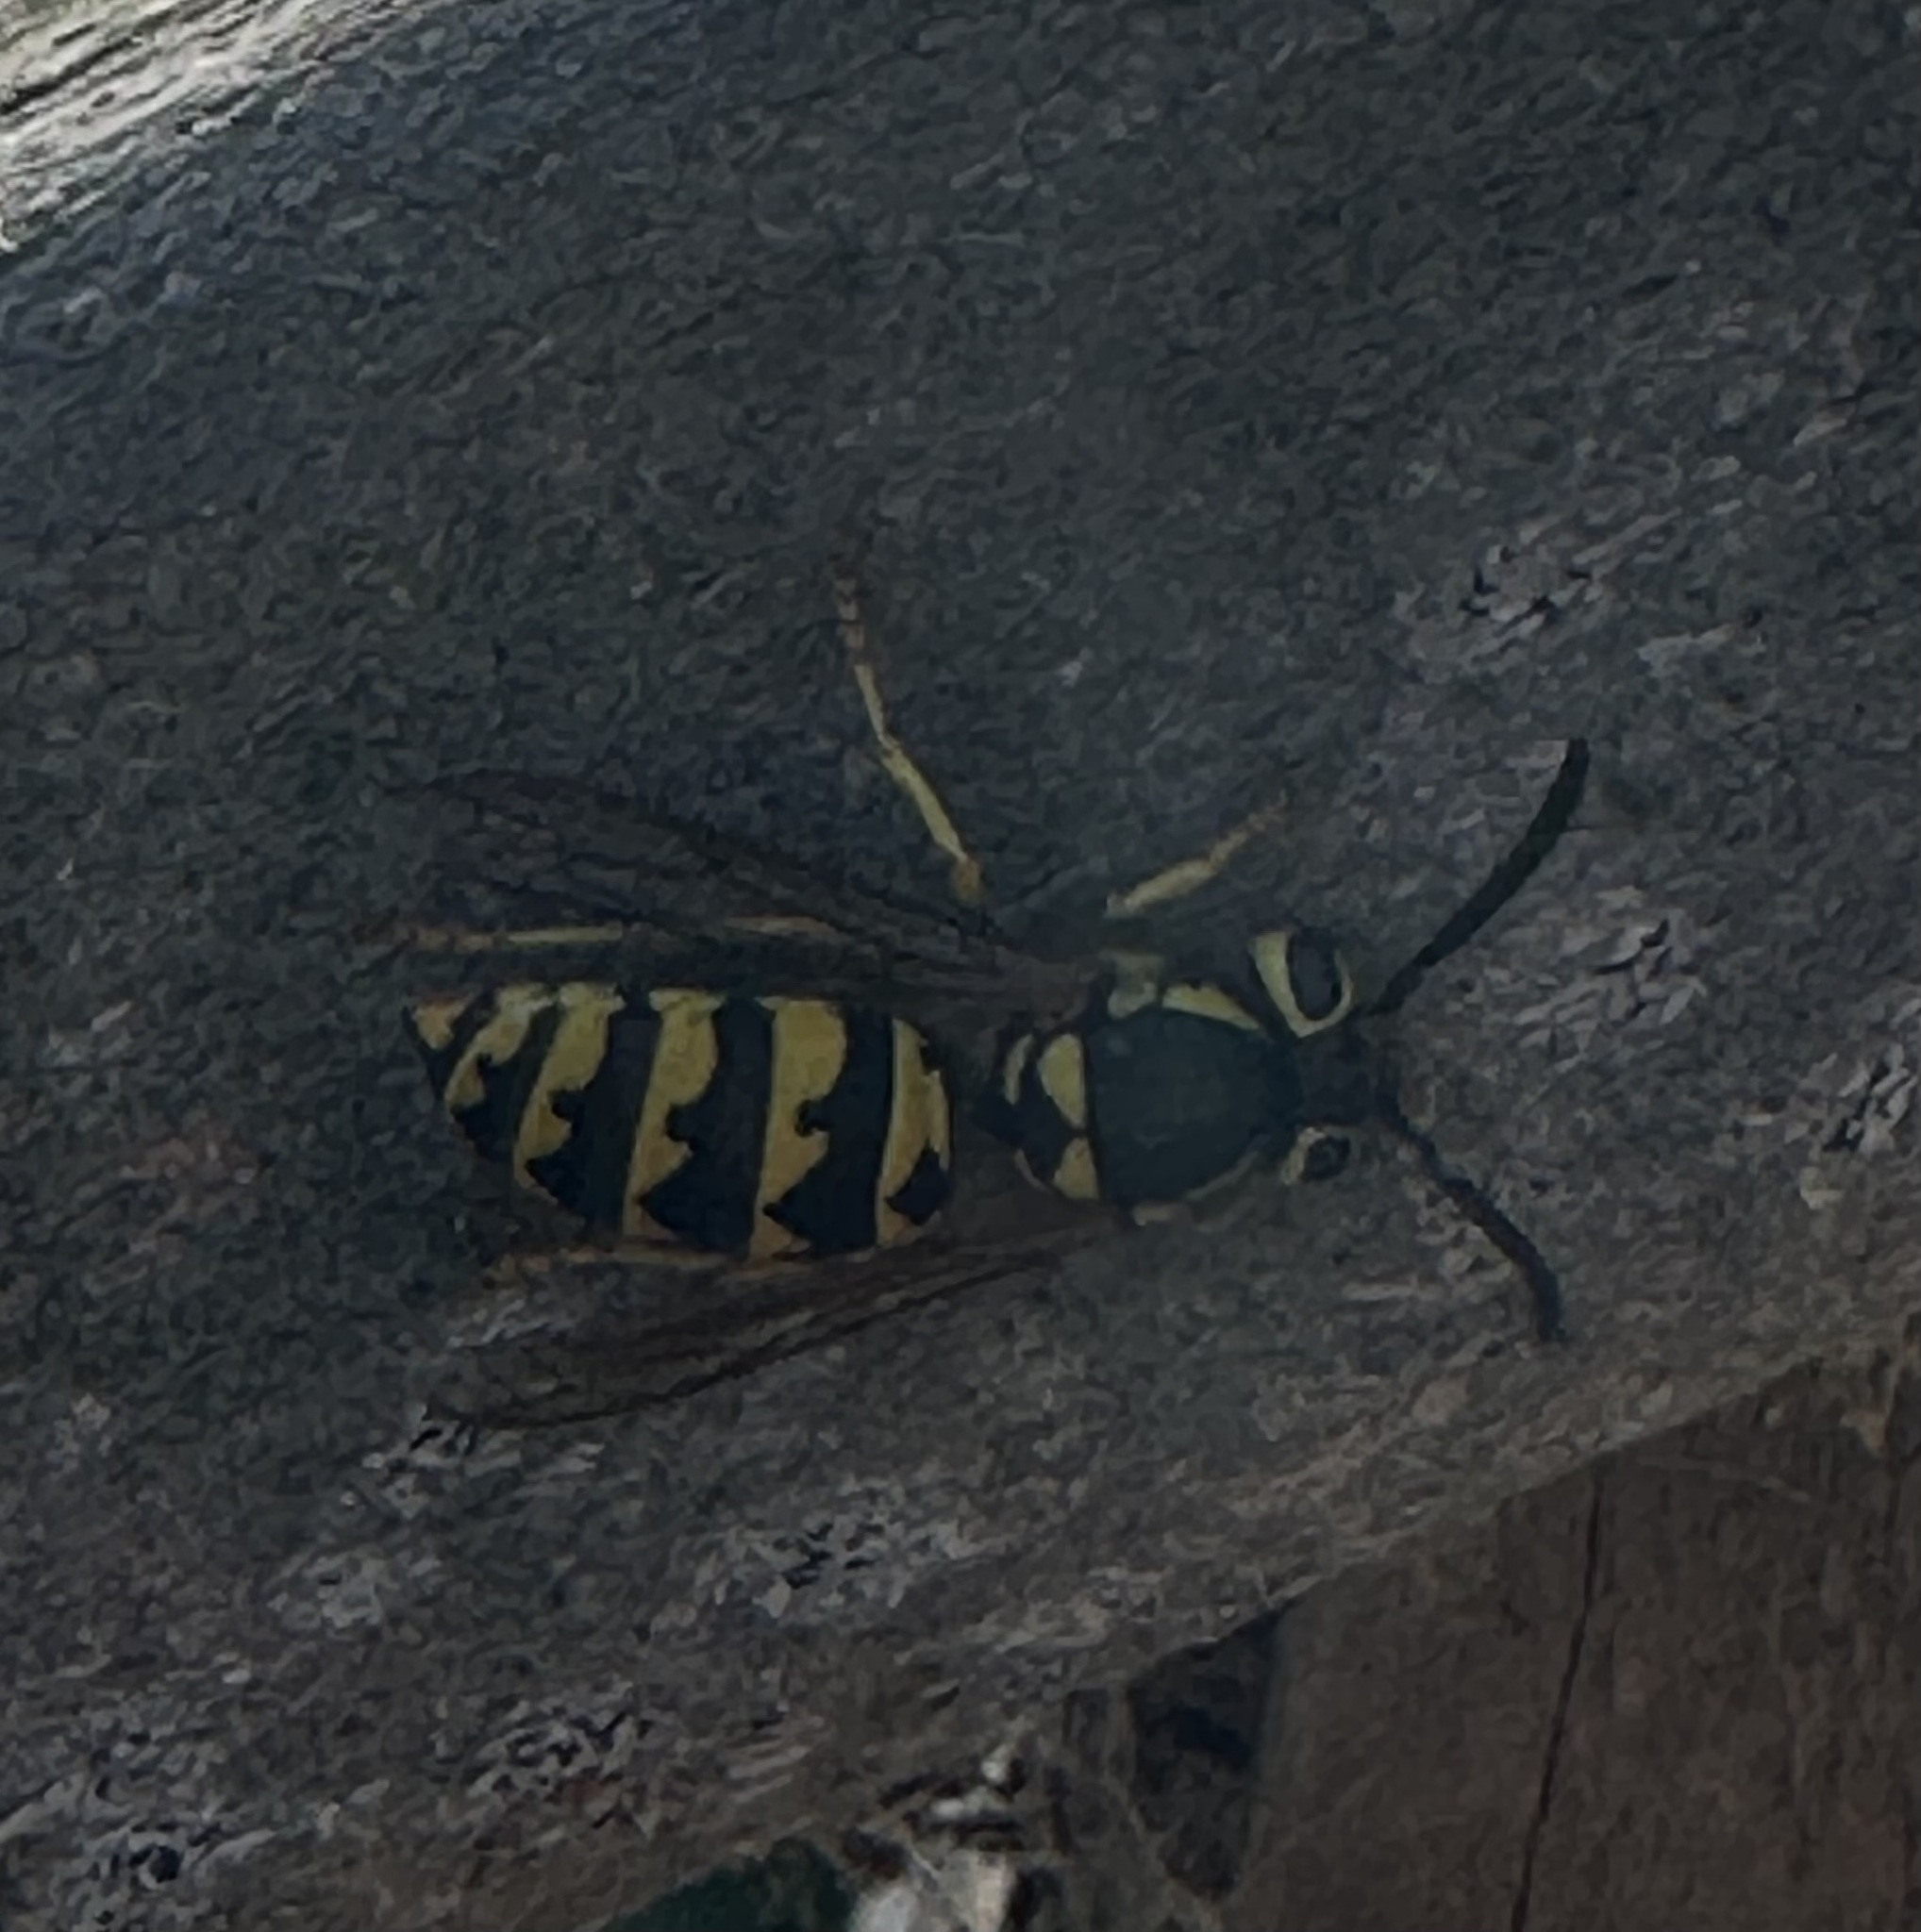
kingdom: Animalia
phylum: Arthropoda
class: Insecta
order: Hymenoptera
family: Vespidae
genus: Vespula
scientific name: Vespula pensylvanica
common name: Western yellowjacket
